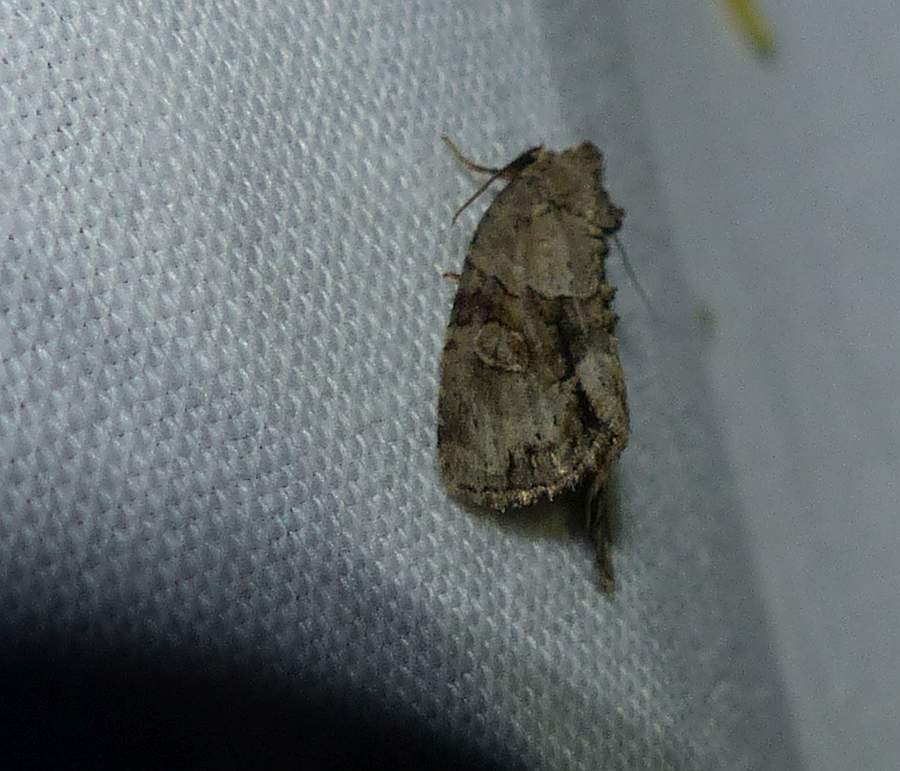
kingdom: Animalia
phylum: Arthropoda
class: Insecta
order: Lepidoptera
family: Noctuidae
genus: Neoligia
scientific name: Neoligia exhausta
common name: Exhausted brocade
